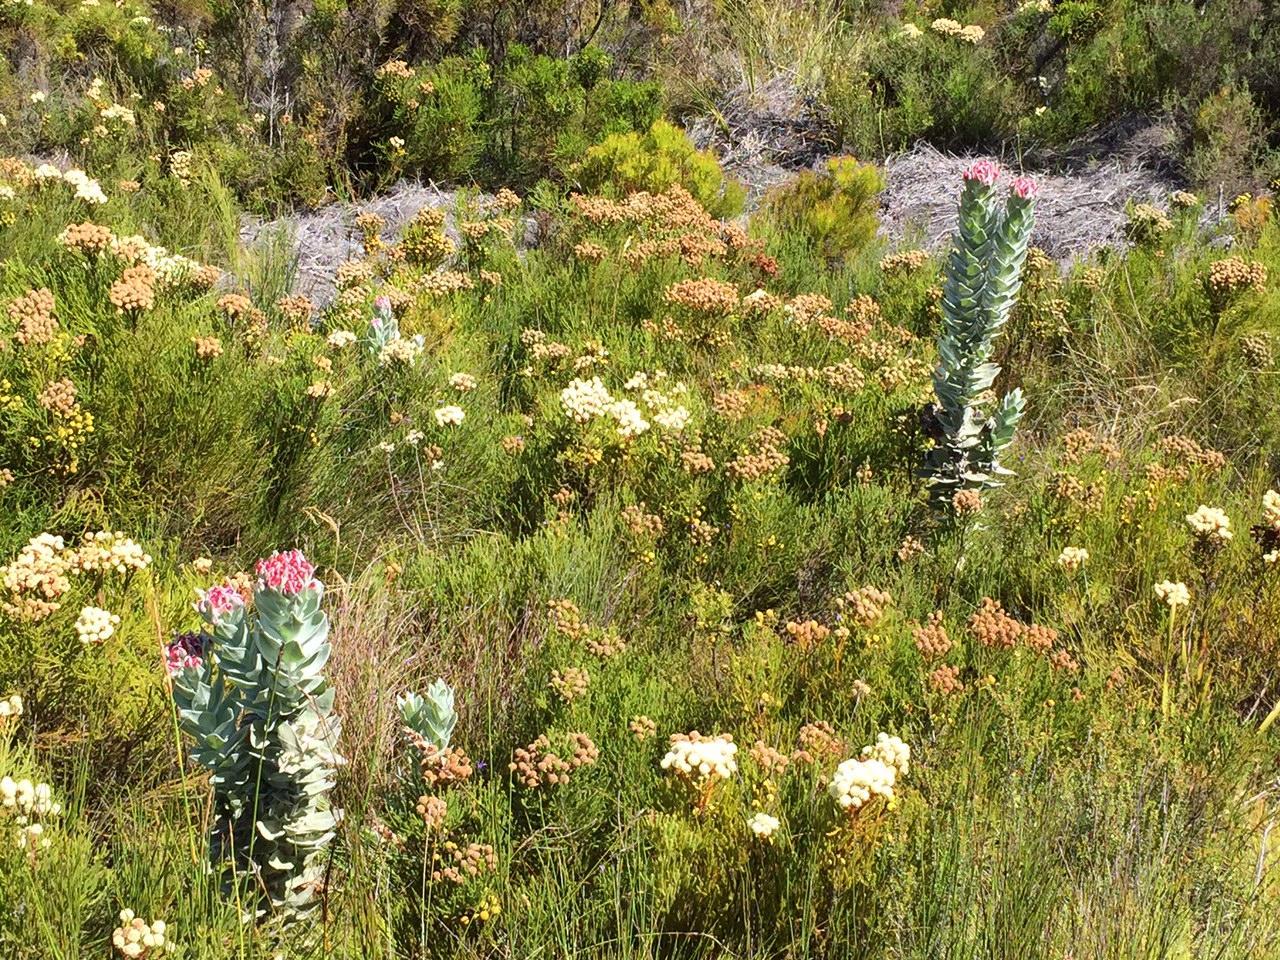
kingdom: Plantae
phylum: Tracheophyta
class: Magnoliopsida
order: Asterales
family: Asteraceae
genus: Syncarpha
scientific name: Syncarpha eximia
